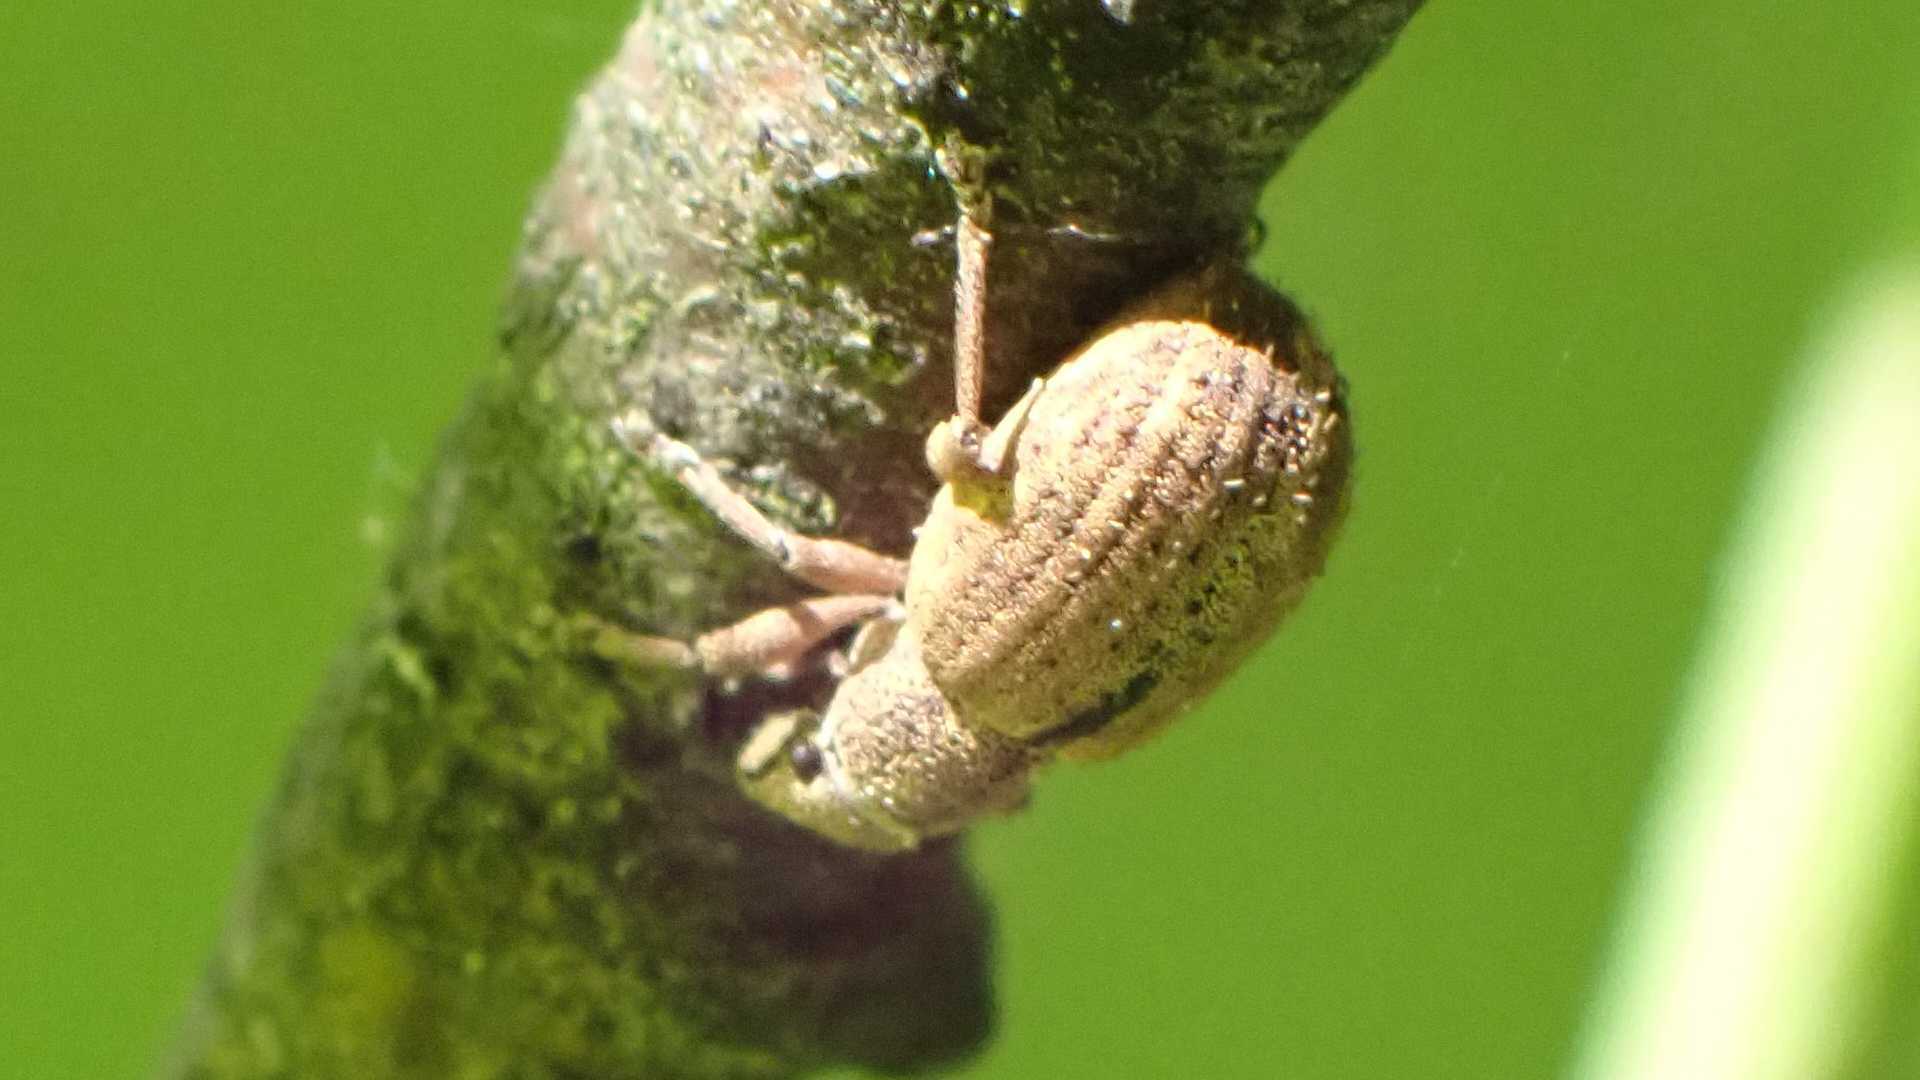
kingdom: Animalia
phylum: Arthropoda
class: Insecta
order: Coleoptera
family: Curculionidae
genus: Strophosoma
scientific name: Strophosoma melanogrammum
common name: Weevil
